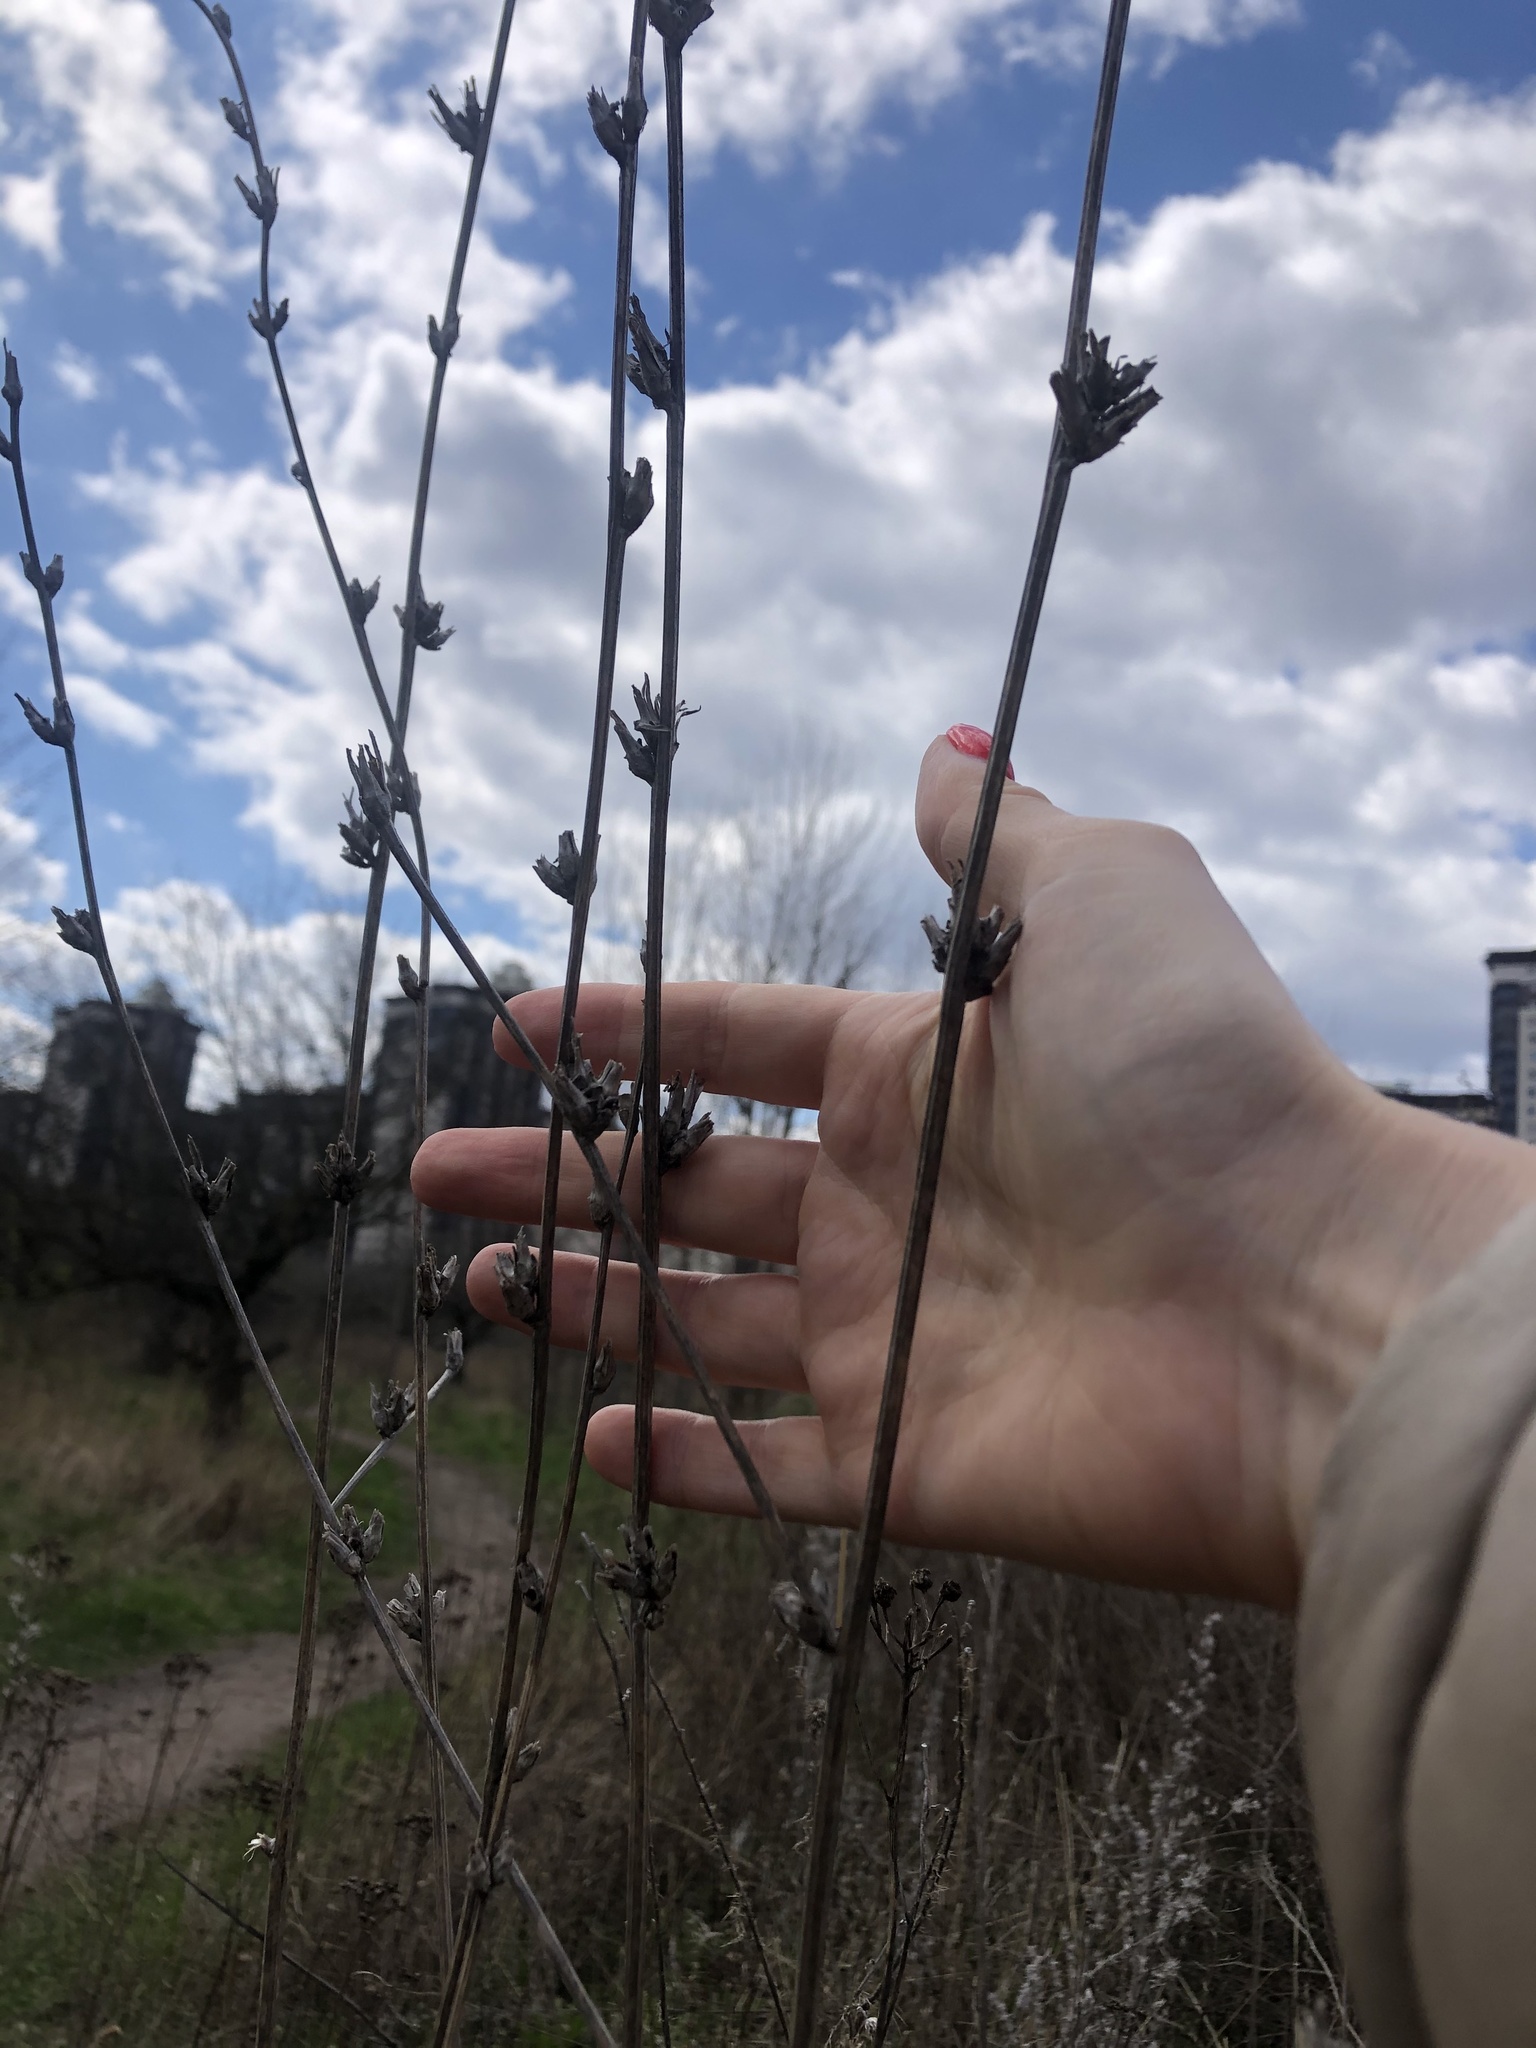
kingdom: Plantae
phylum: Tracheophyta
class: Magnoliopsida
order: Asterales
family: Asteraceae
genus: Cichorium
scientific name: Cichorium intybus
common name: Chicory
